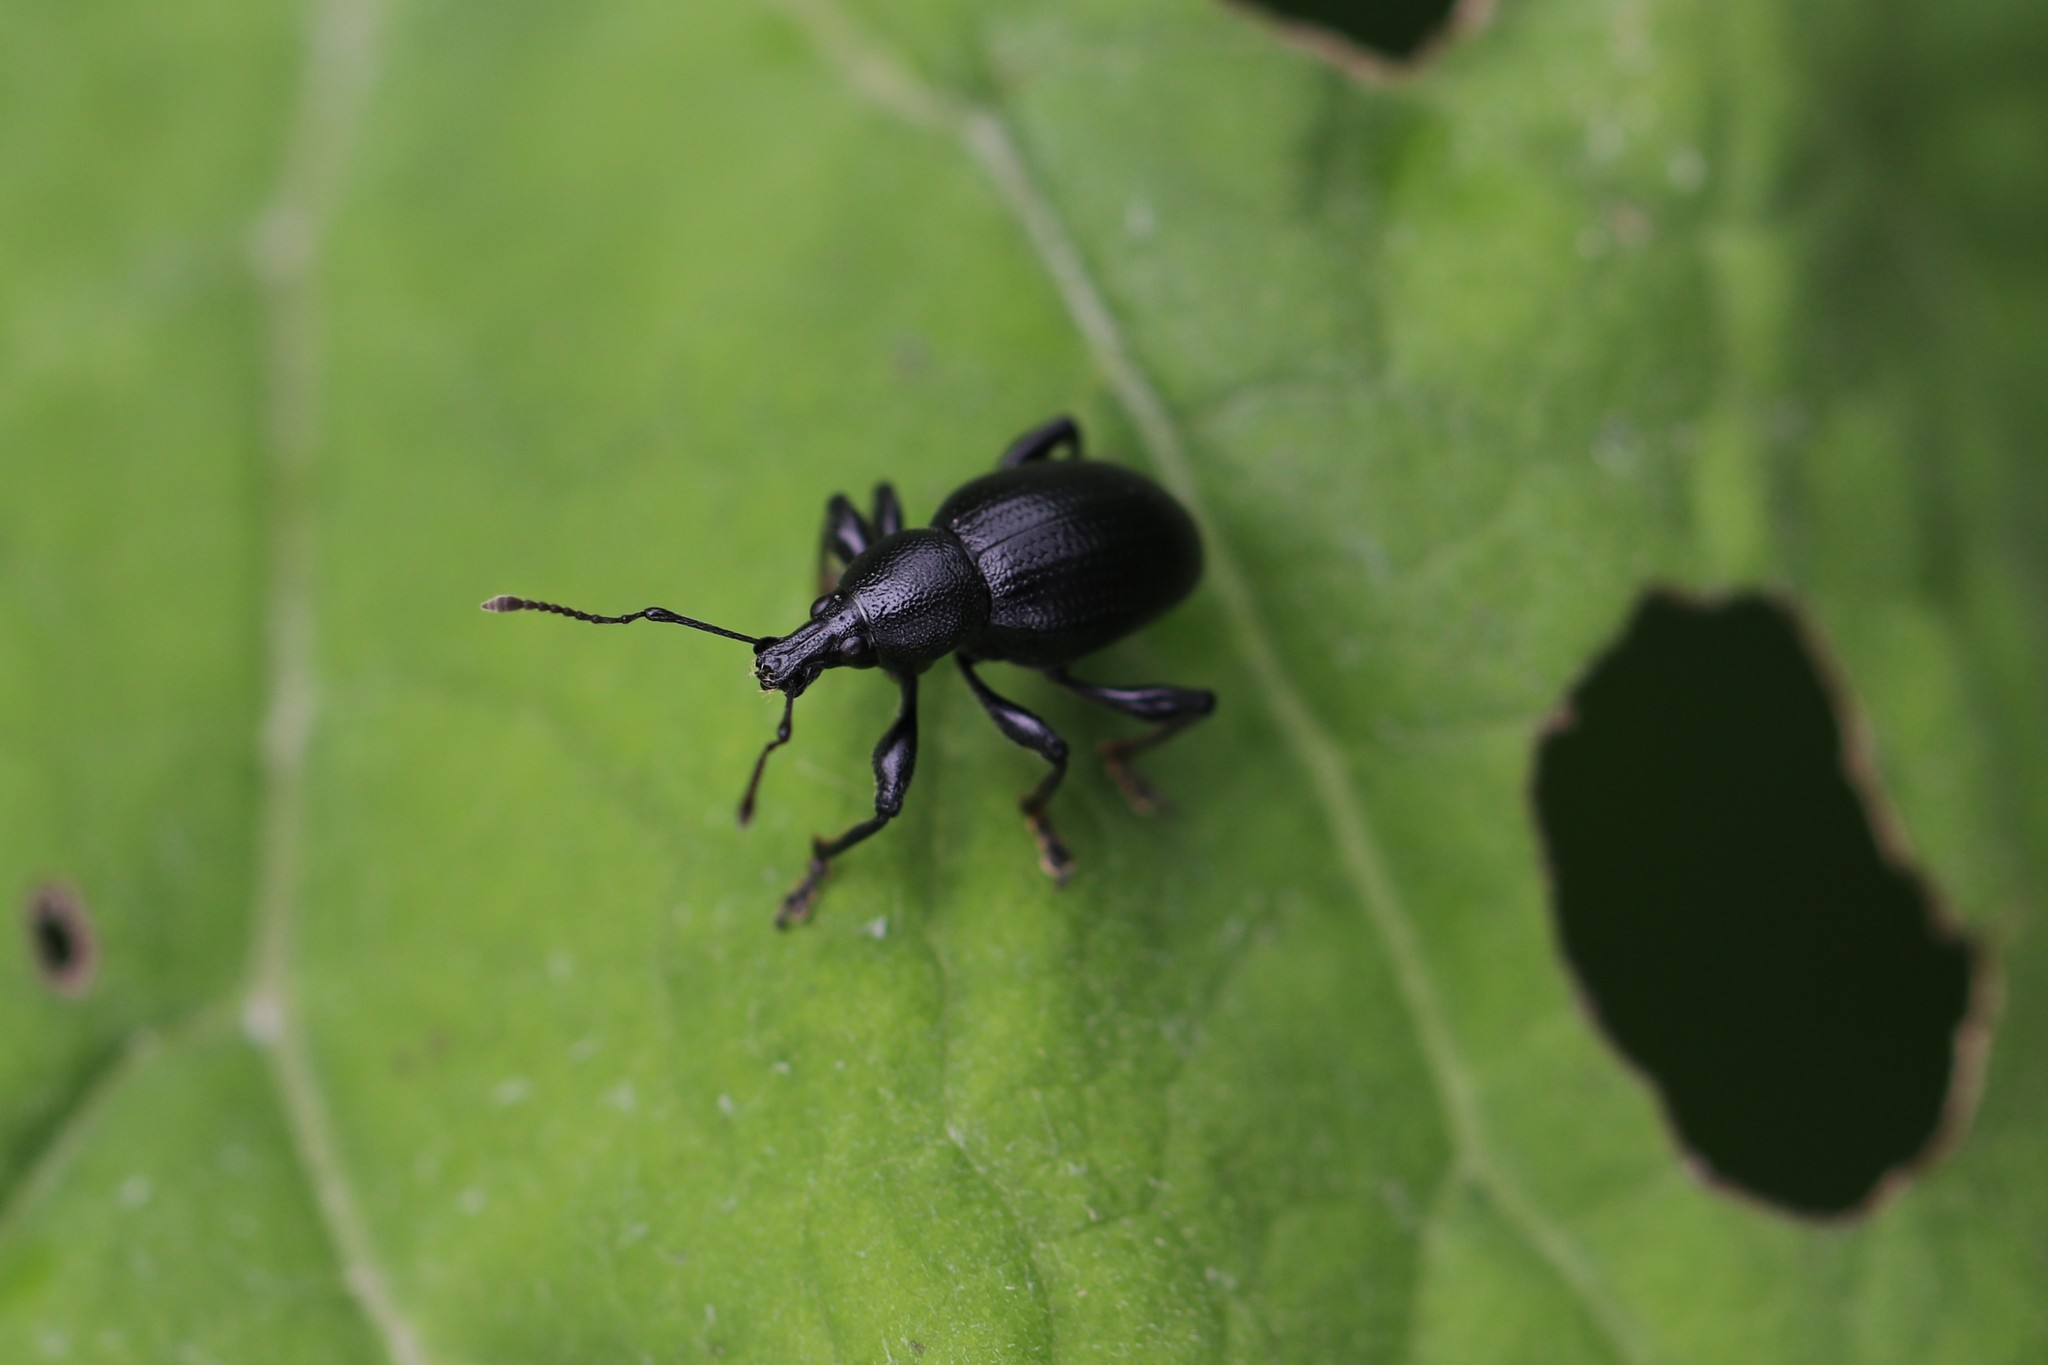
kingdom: Animalia
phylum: Arthropoda
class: Insecta
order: Coleoptera
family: Curculionidae
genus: Liophloeus
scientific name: Liophloeus tessulatus
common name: Weevil
